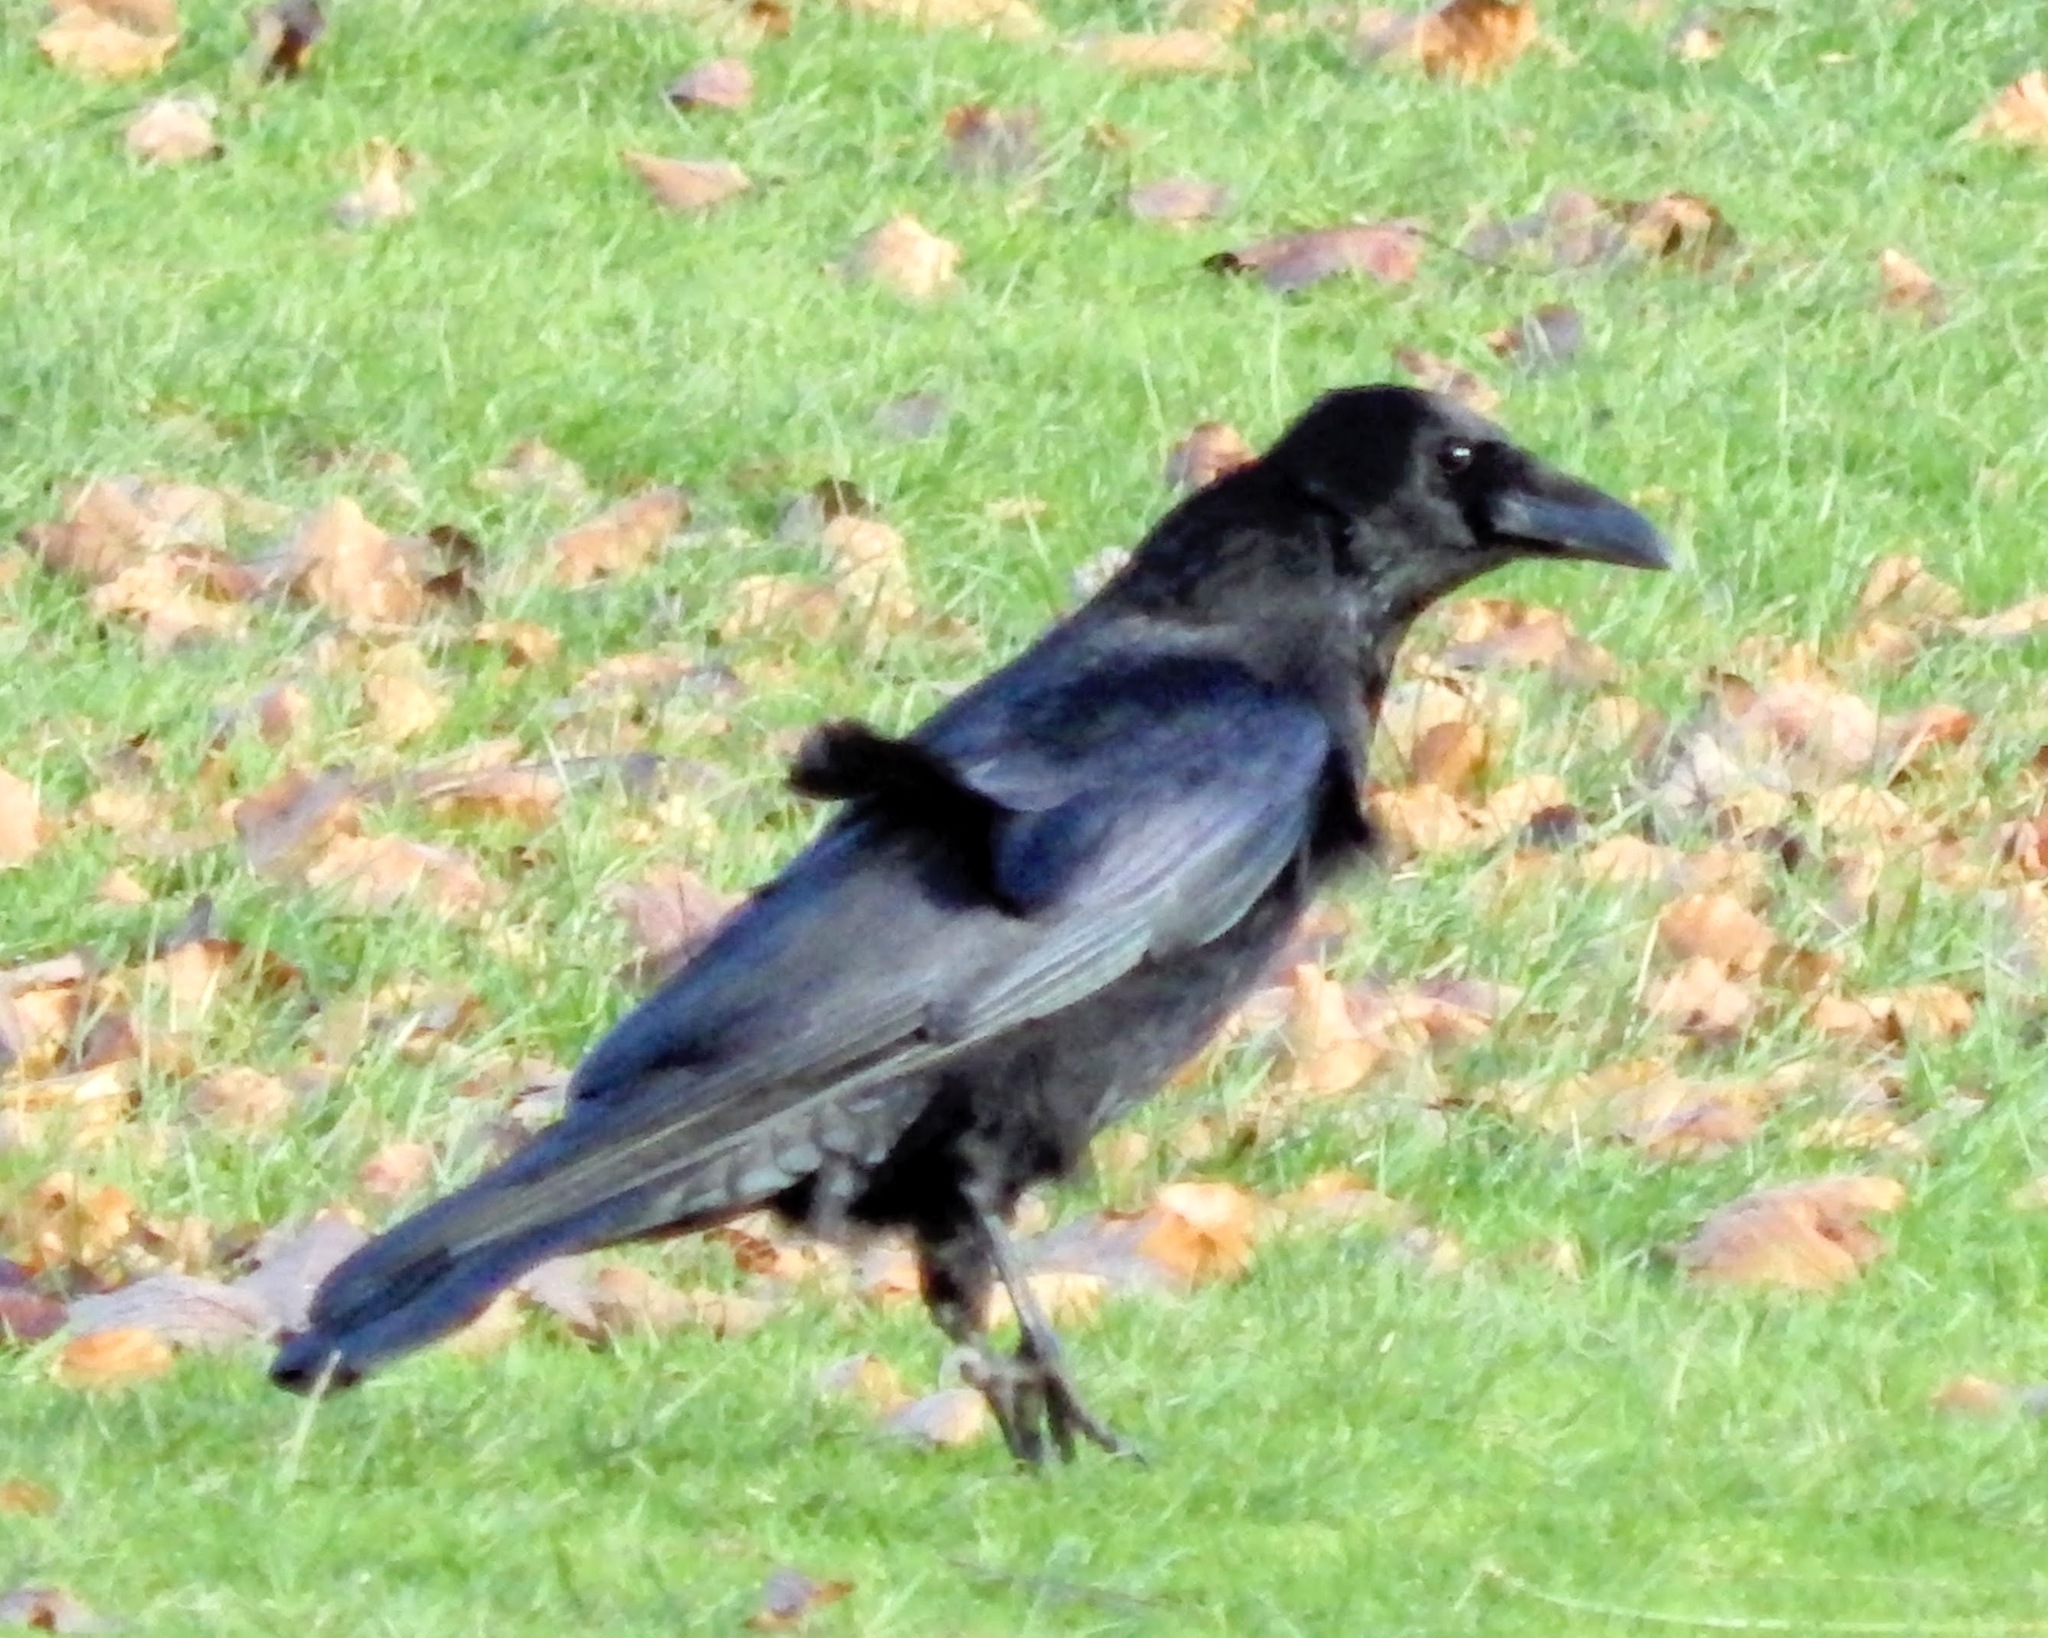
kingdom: Animalia
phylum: Chordata
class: Aves
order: Passeriformes
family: Corvidae
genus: Corvus
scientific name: Corvus corone
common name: Carrion crow
